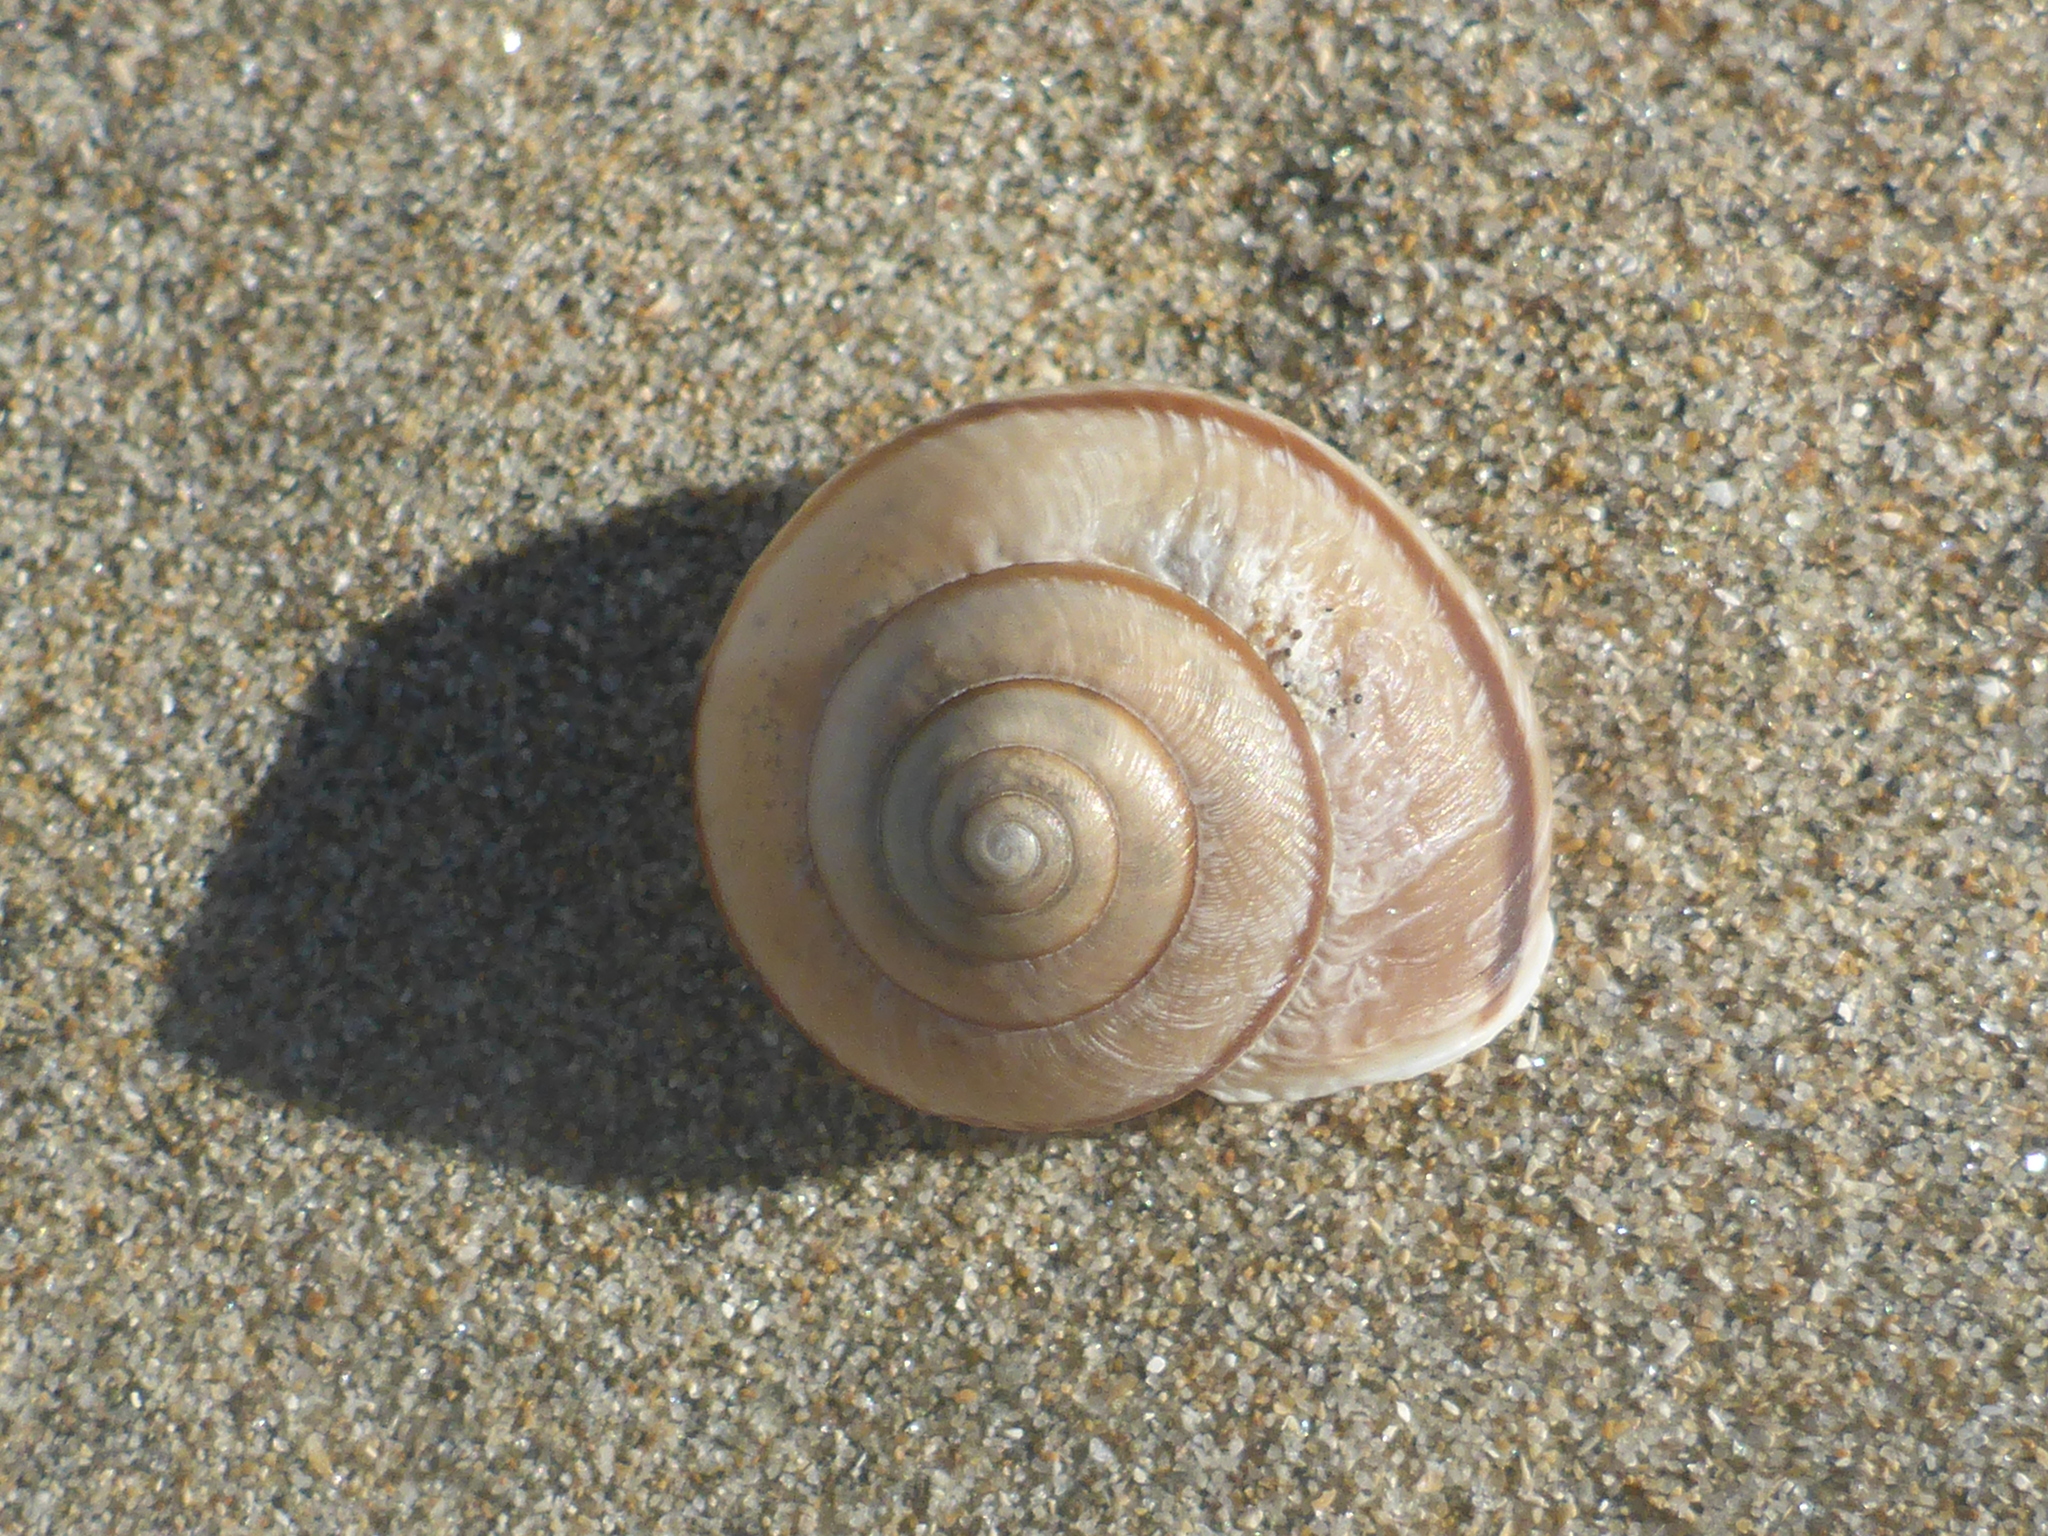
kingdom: Animalia
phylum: Mollusca
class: Gastropoda
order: Stylommatophora
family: Xanthonychidae
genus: Helminthoglypta
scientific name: Helminthoglypta nickliniana
